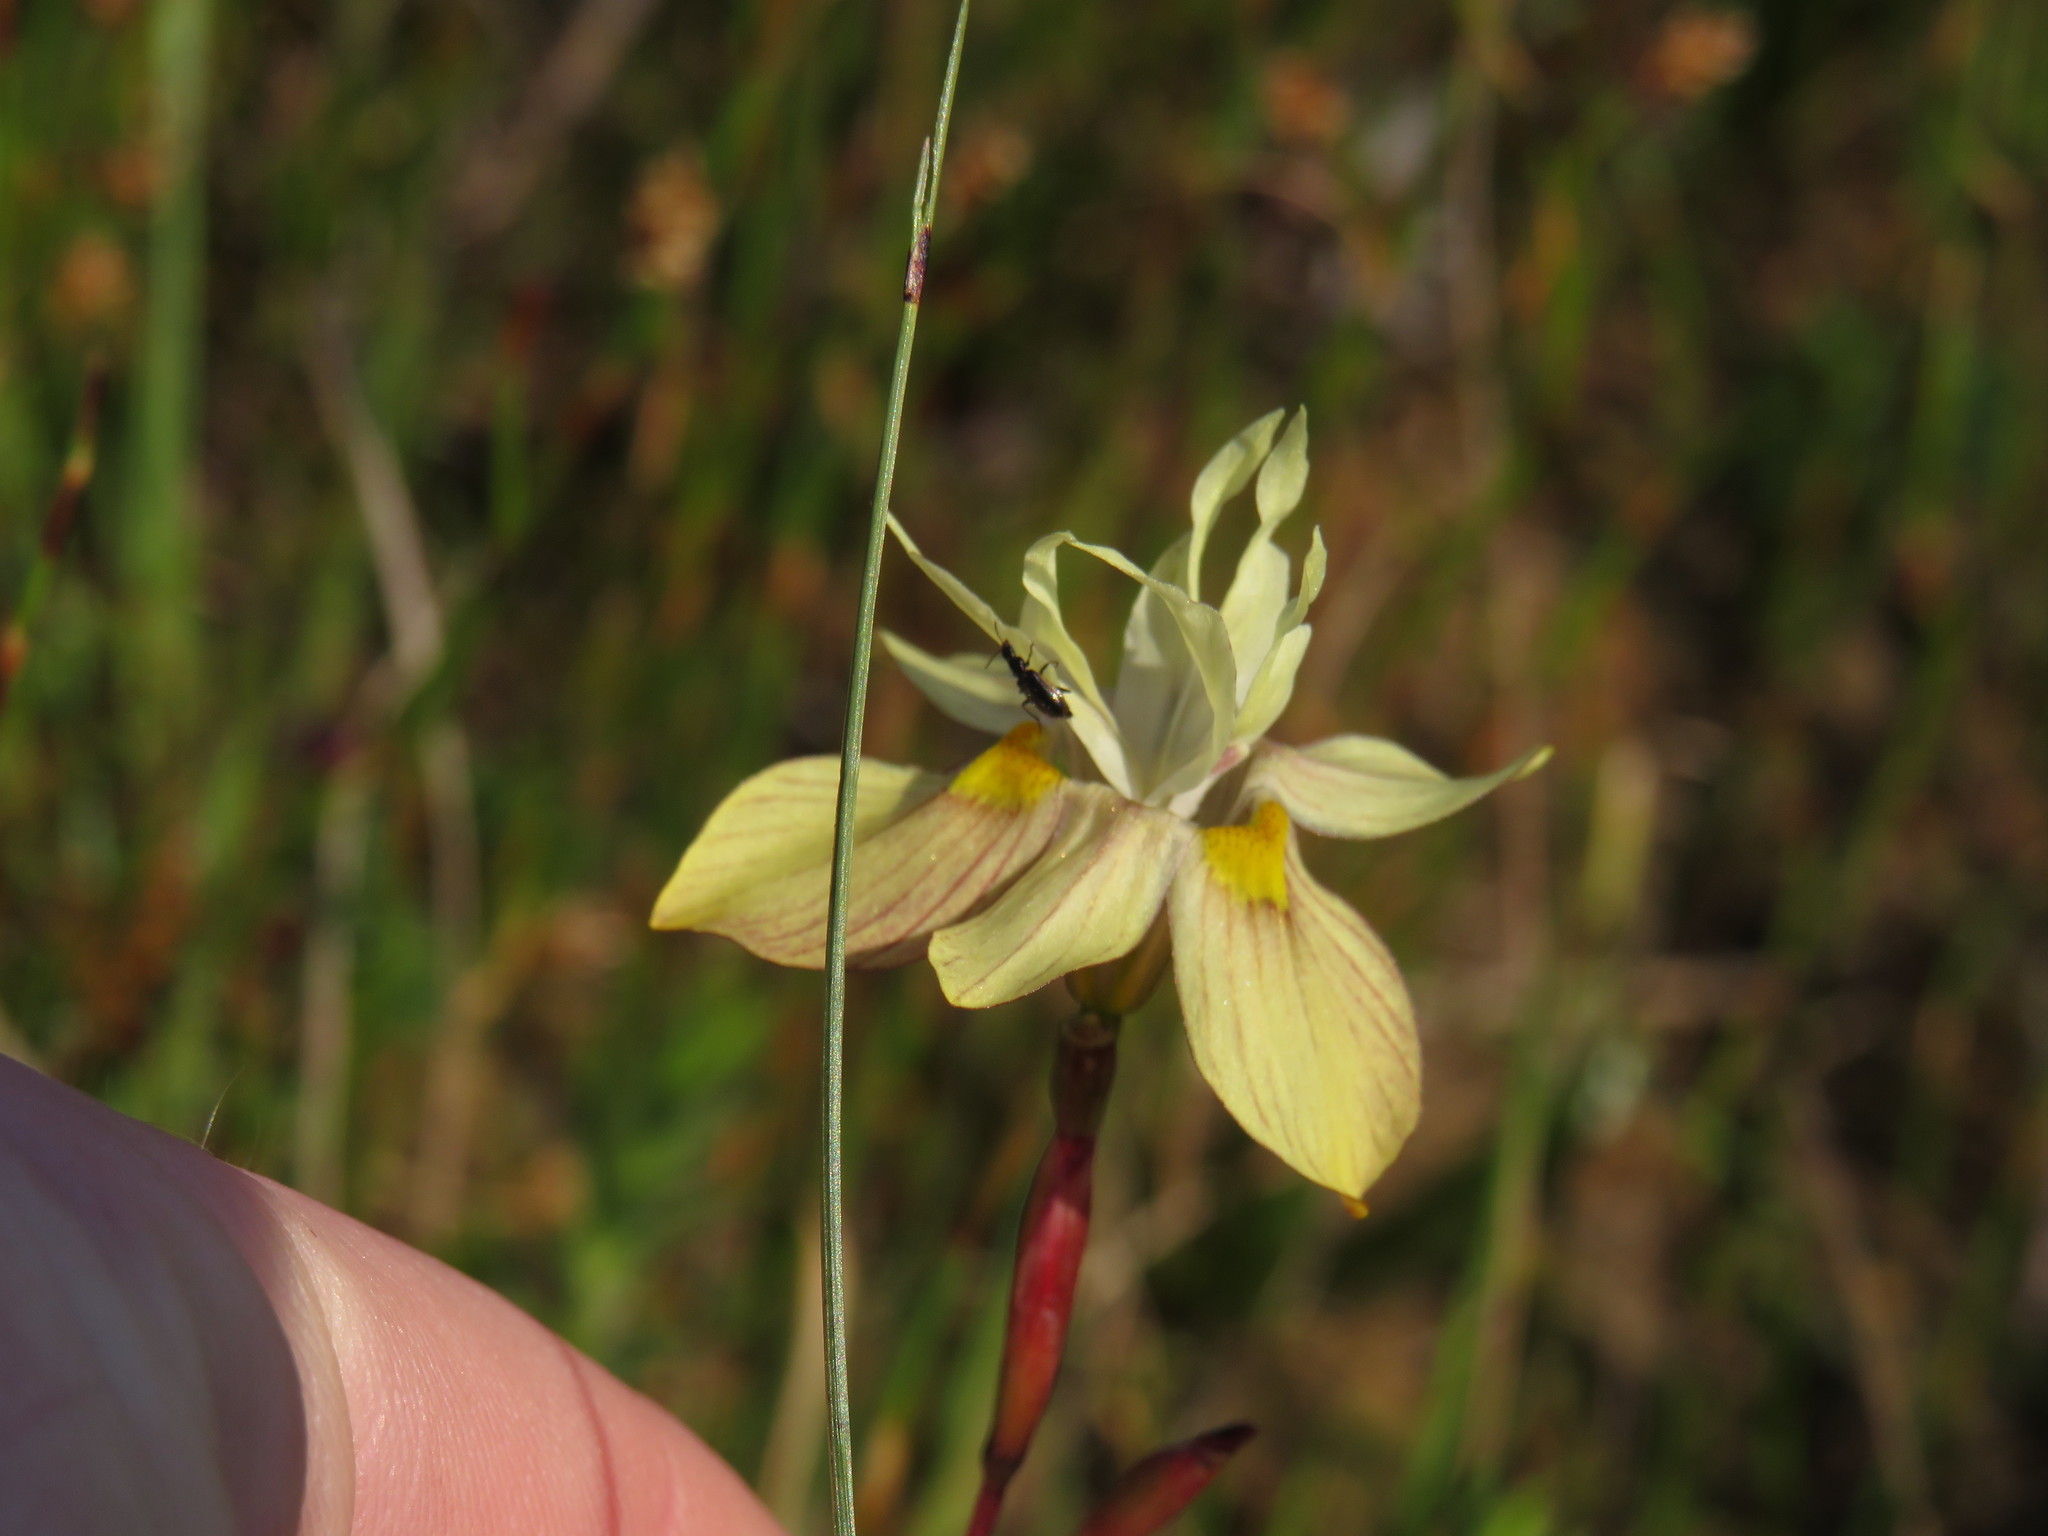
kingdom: Plantae
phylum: Tracheophyta
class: Liliopsida
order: Asparagales
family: Iridaceae
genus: Moraea
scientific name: Moraea gawleri
